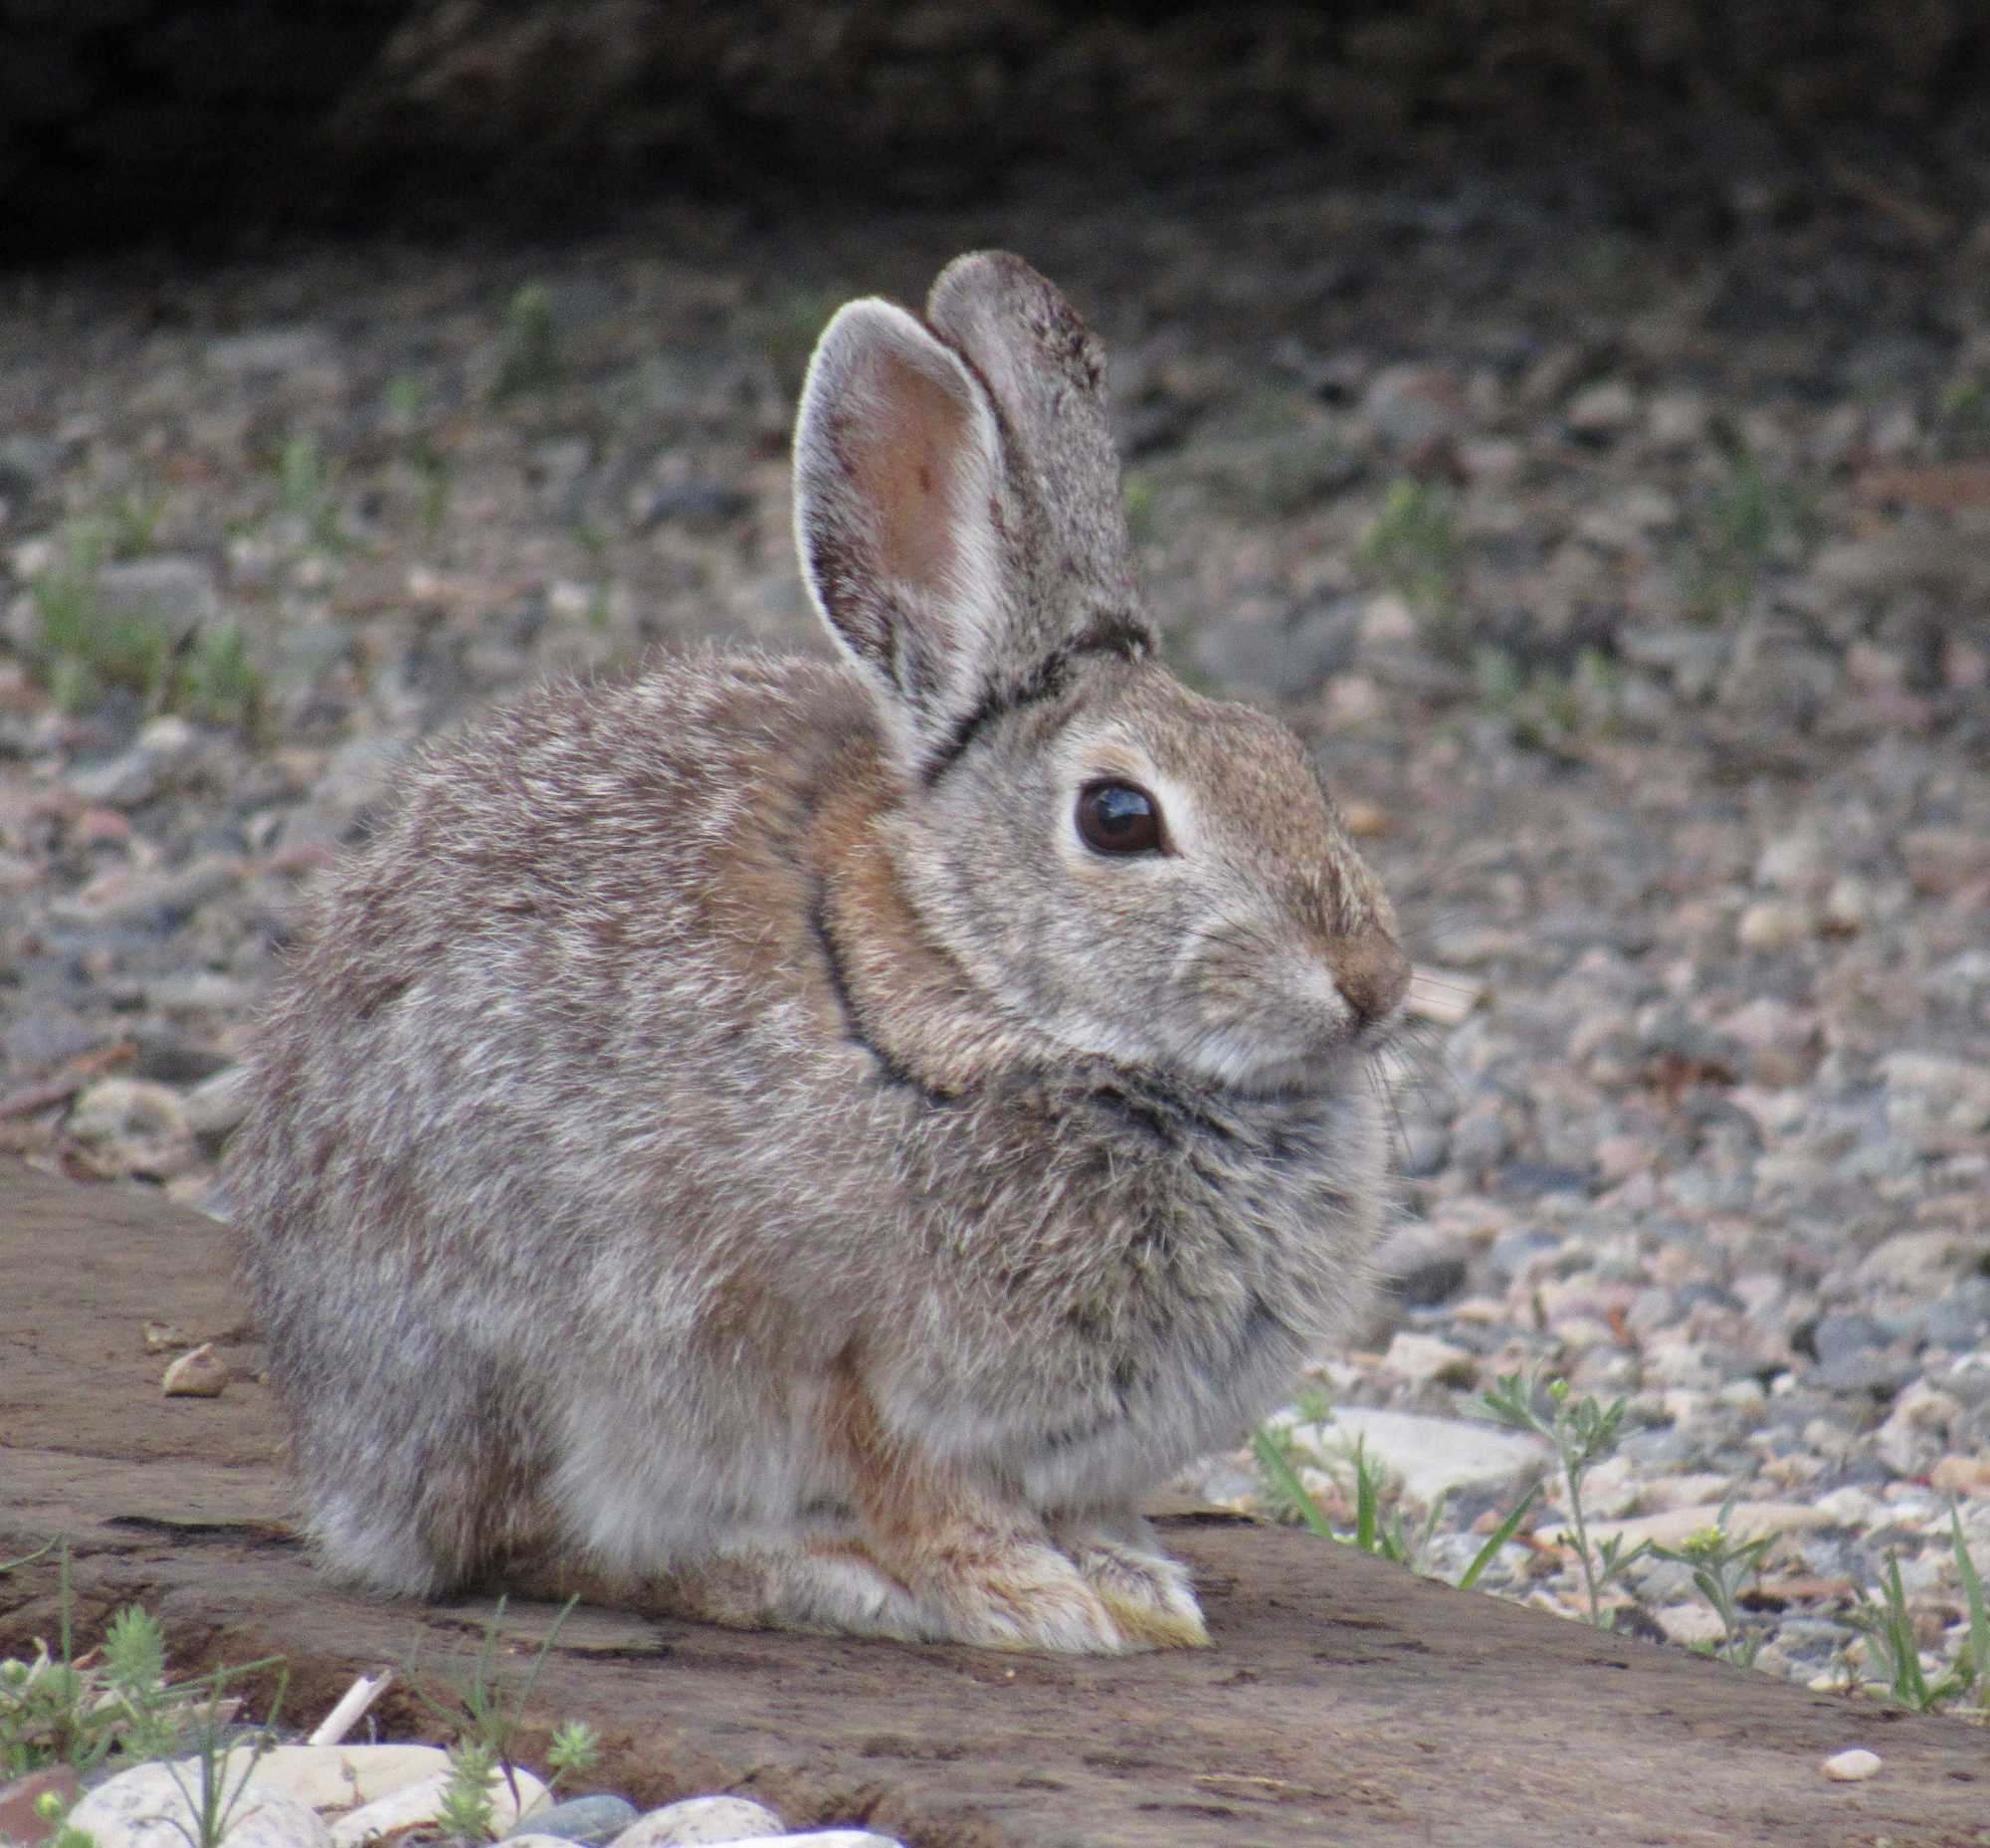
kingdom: Animalia
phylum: Chordata
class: Mammalia
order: Lagomorpha
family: Leporidae
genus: Sylvilagus
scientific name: Sylvilagus nuttallii
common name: Mountain cottontail
